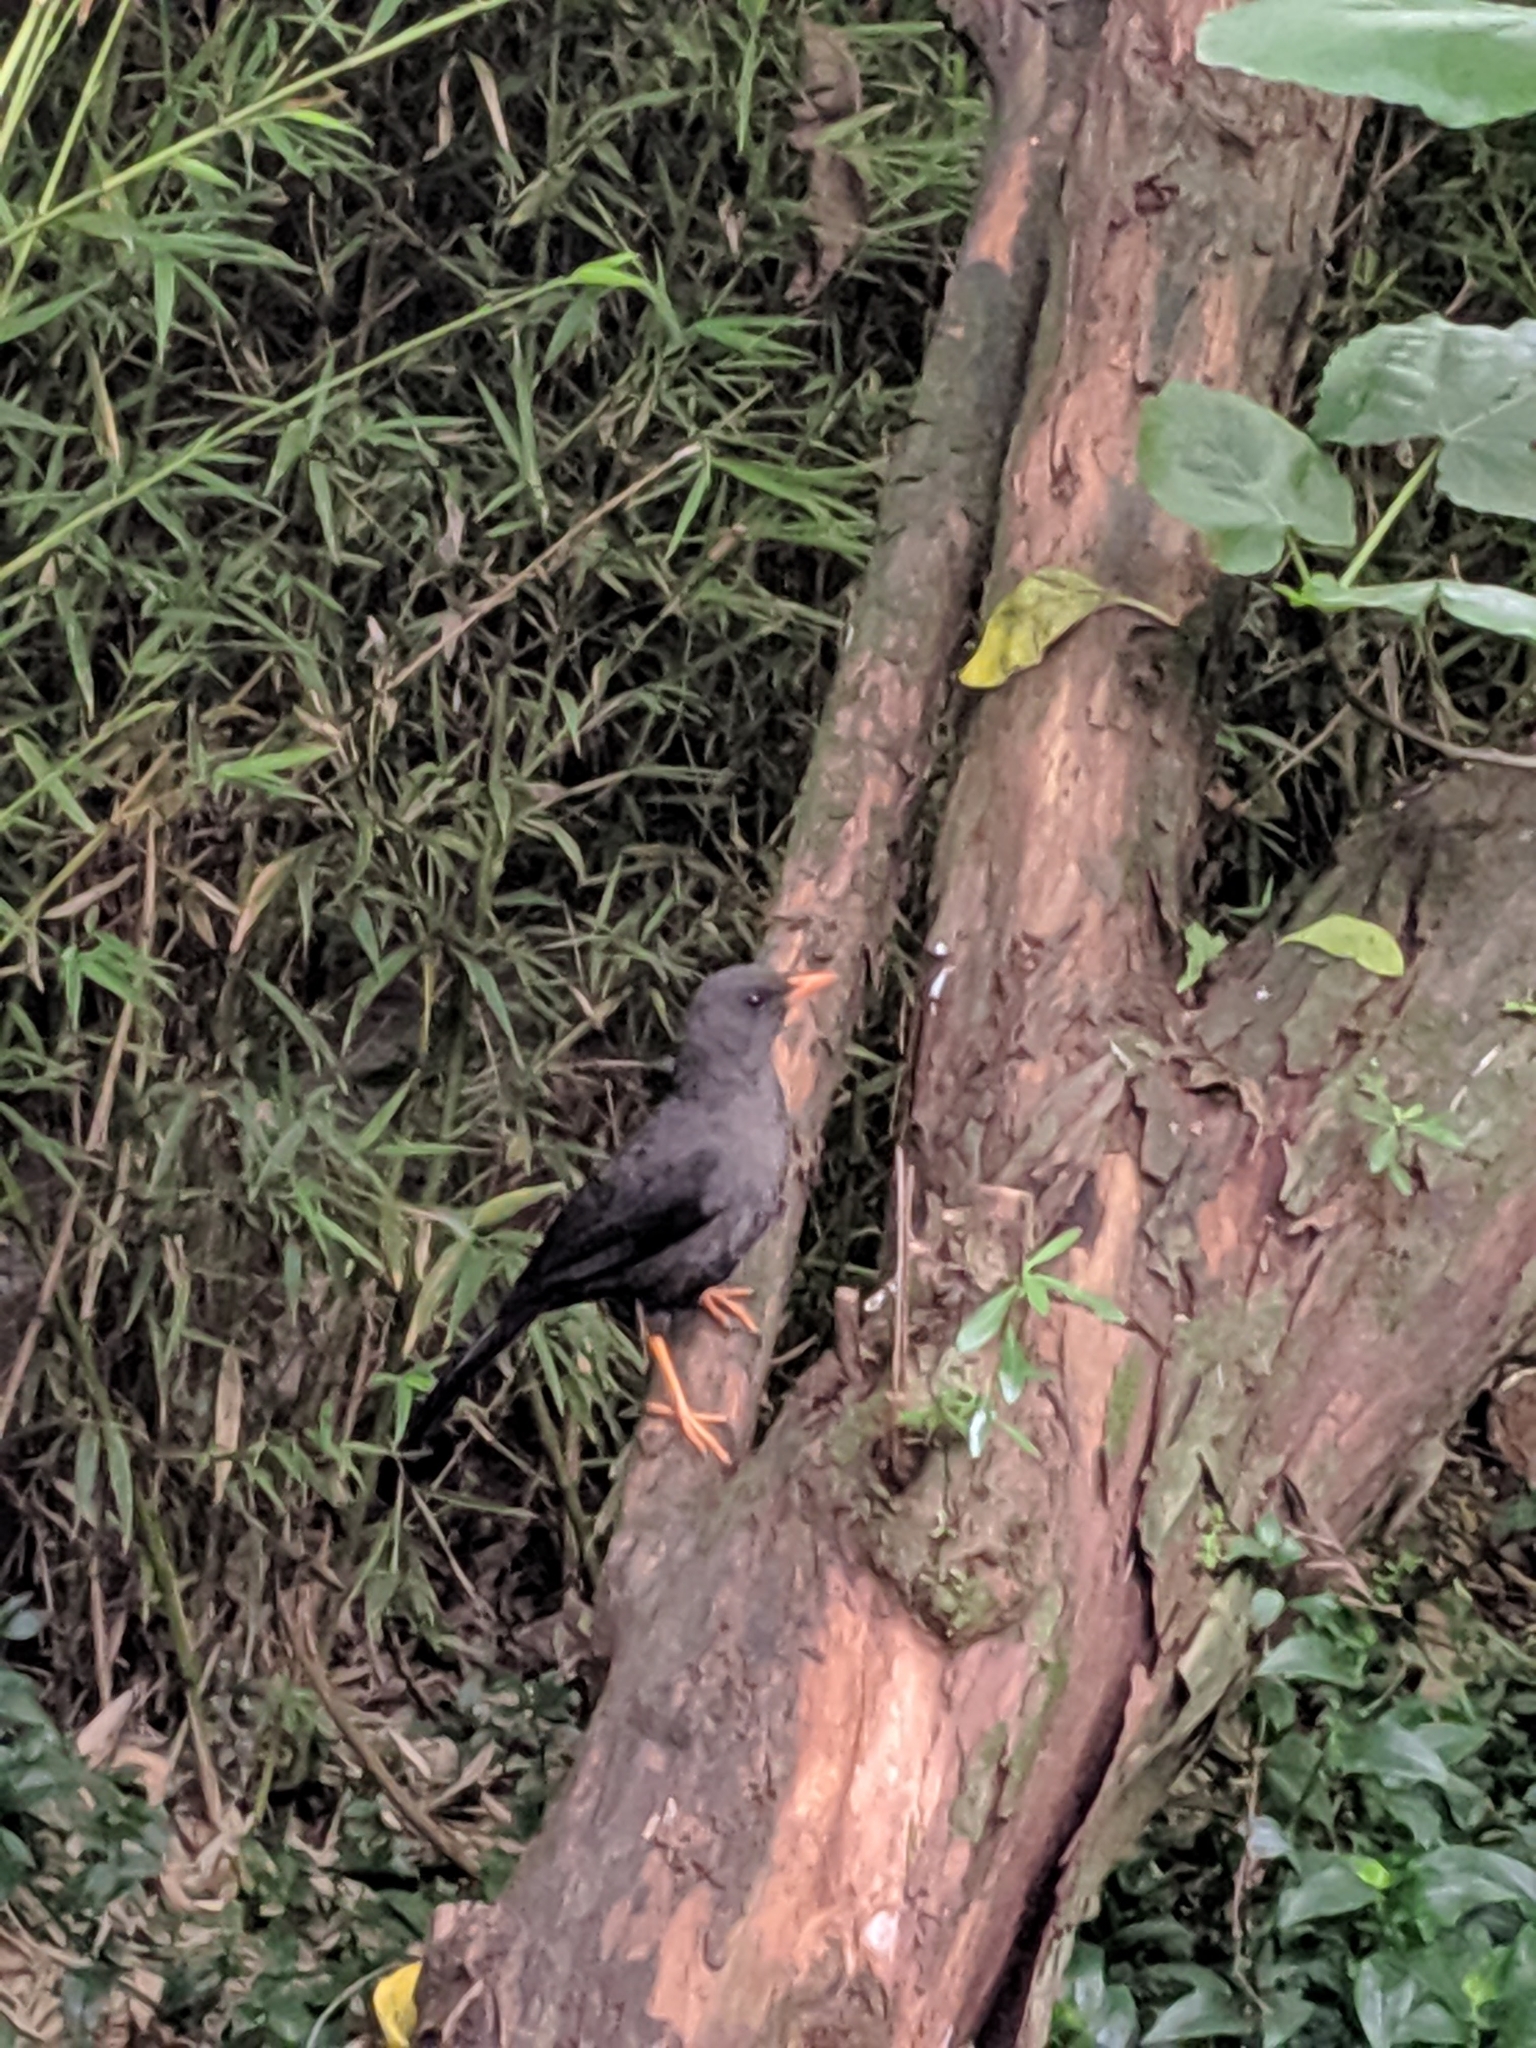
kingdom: Animalia
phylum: Chordata
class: Aves
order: Passeriformes
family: Turdidae
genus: Turdus
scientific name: Turdus fuscater
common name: Great thrush
